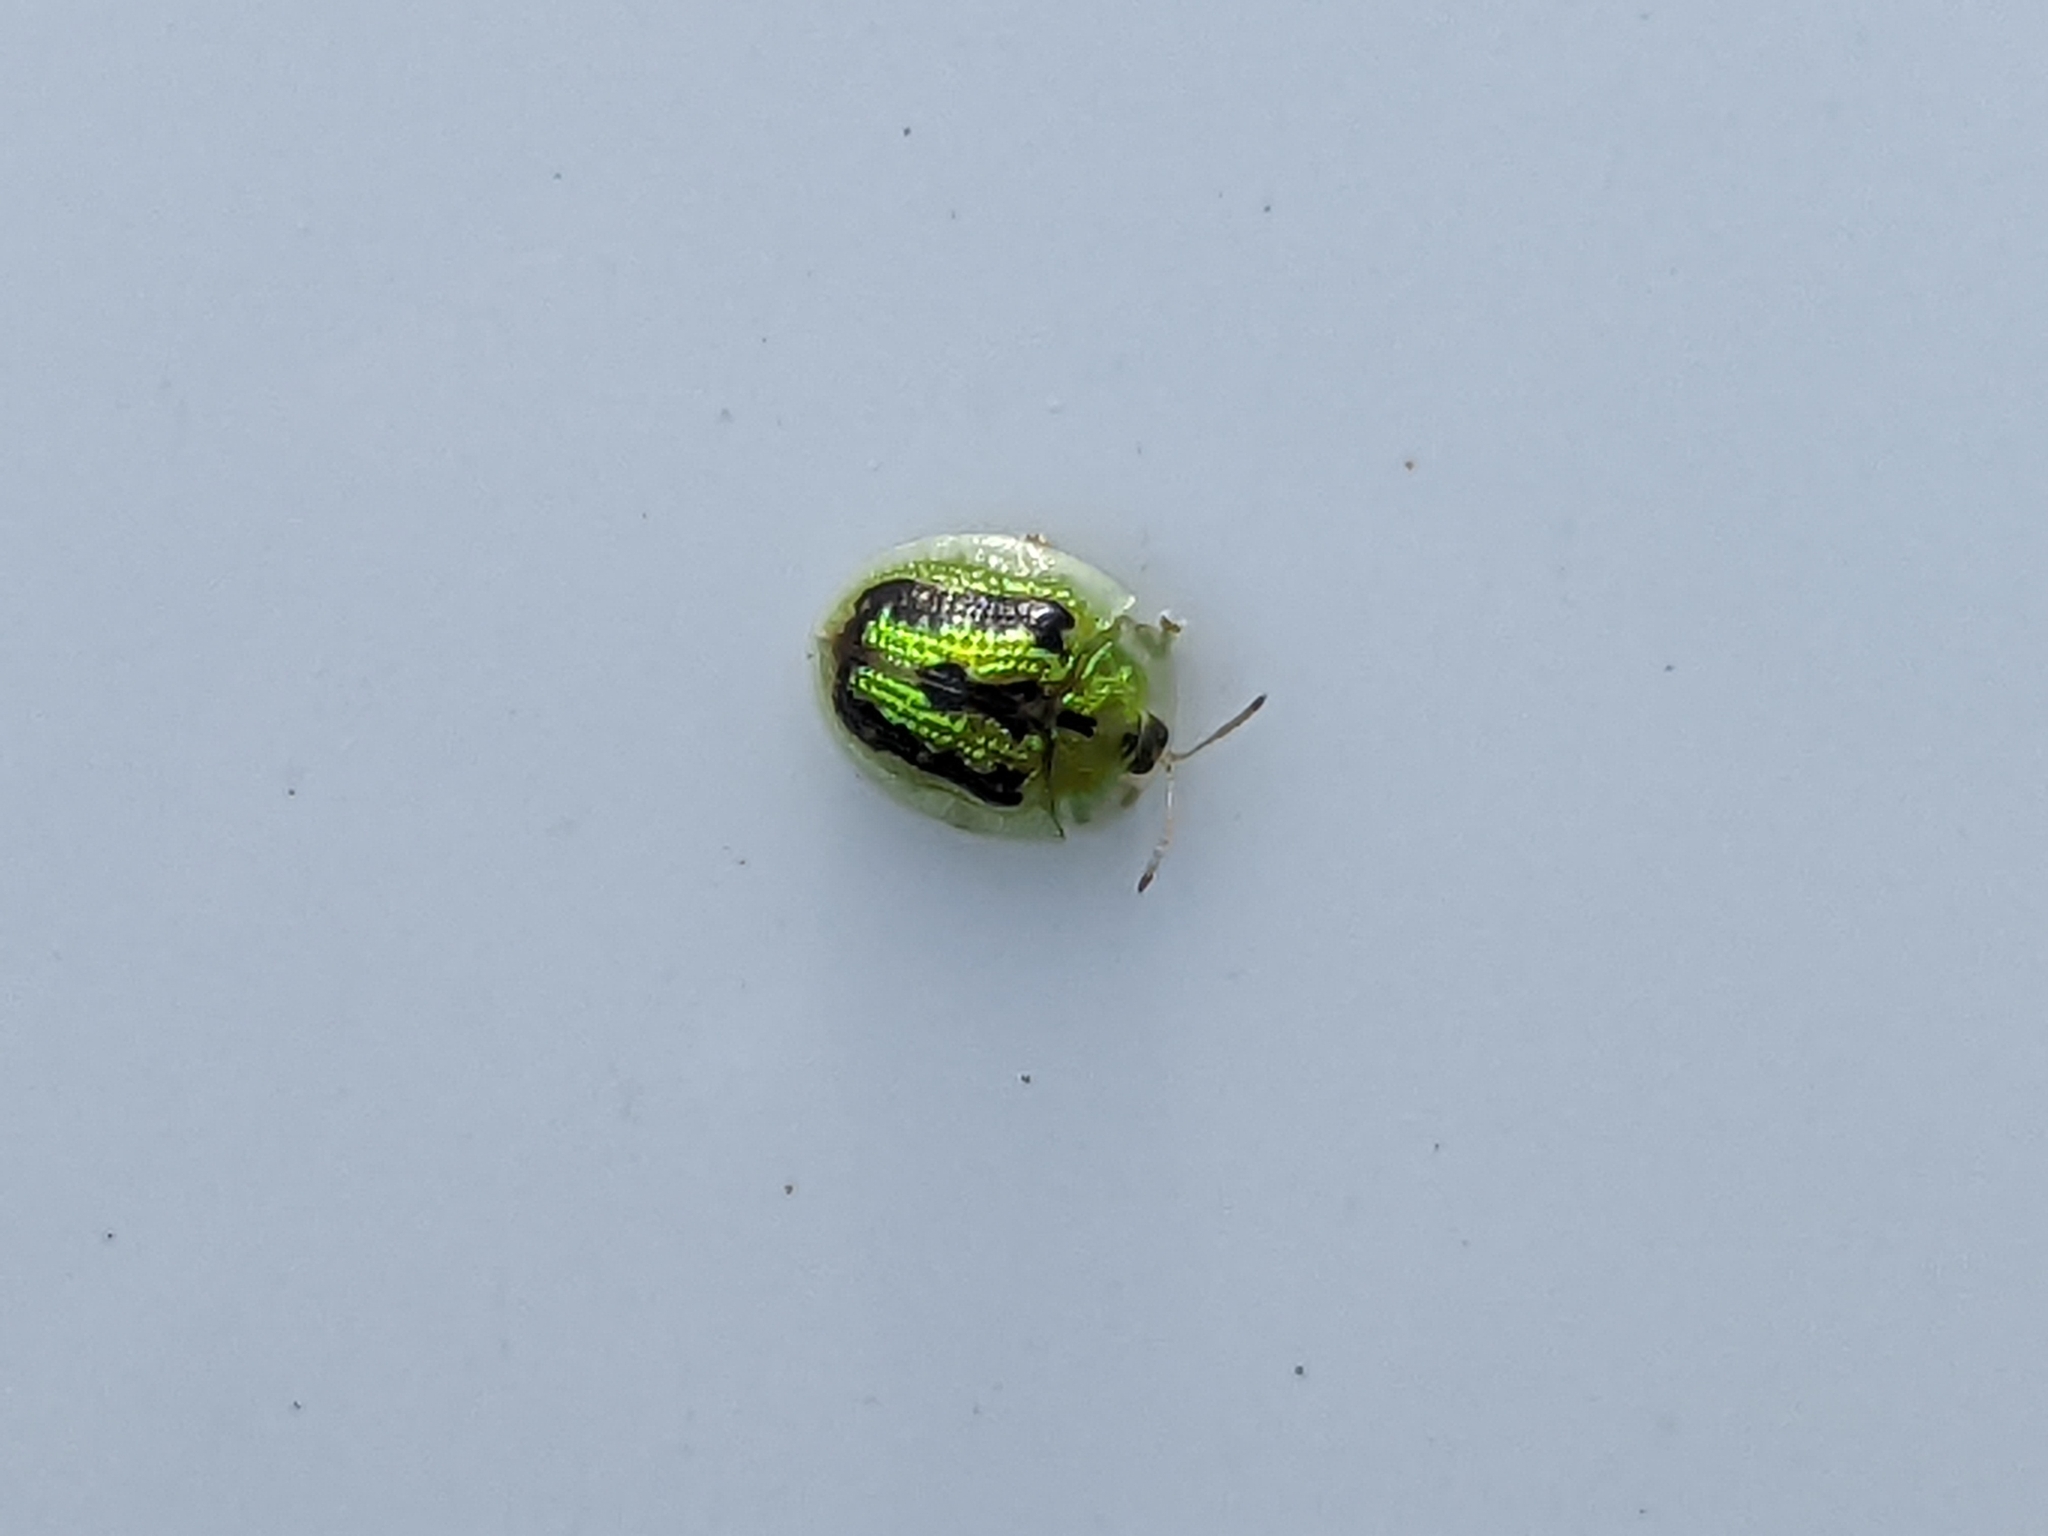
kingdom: Animalia
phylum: Arthropoda
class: Insecta
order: Coleoptera
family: Chrysomelidae
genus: Cassida
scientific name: Cassida circumdata
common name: Tortoise beetle
